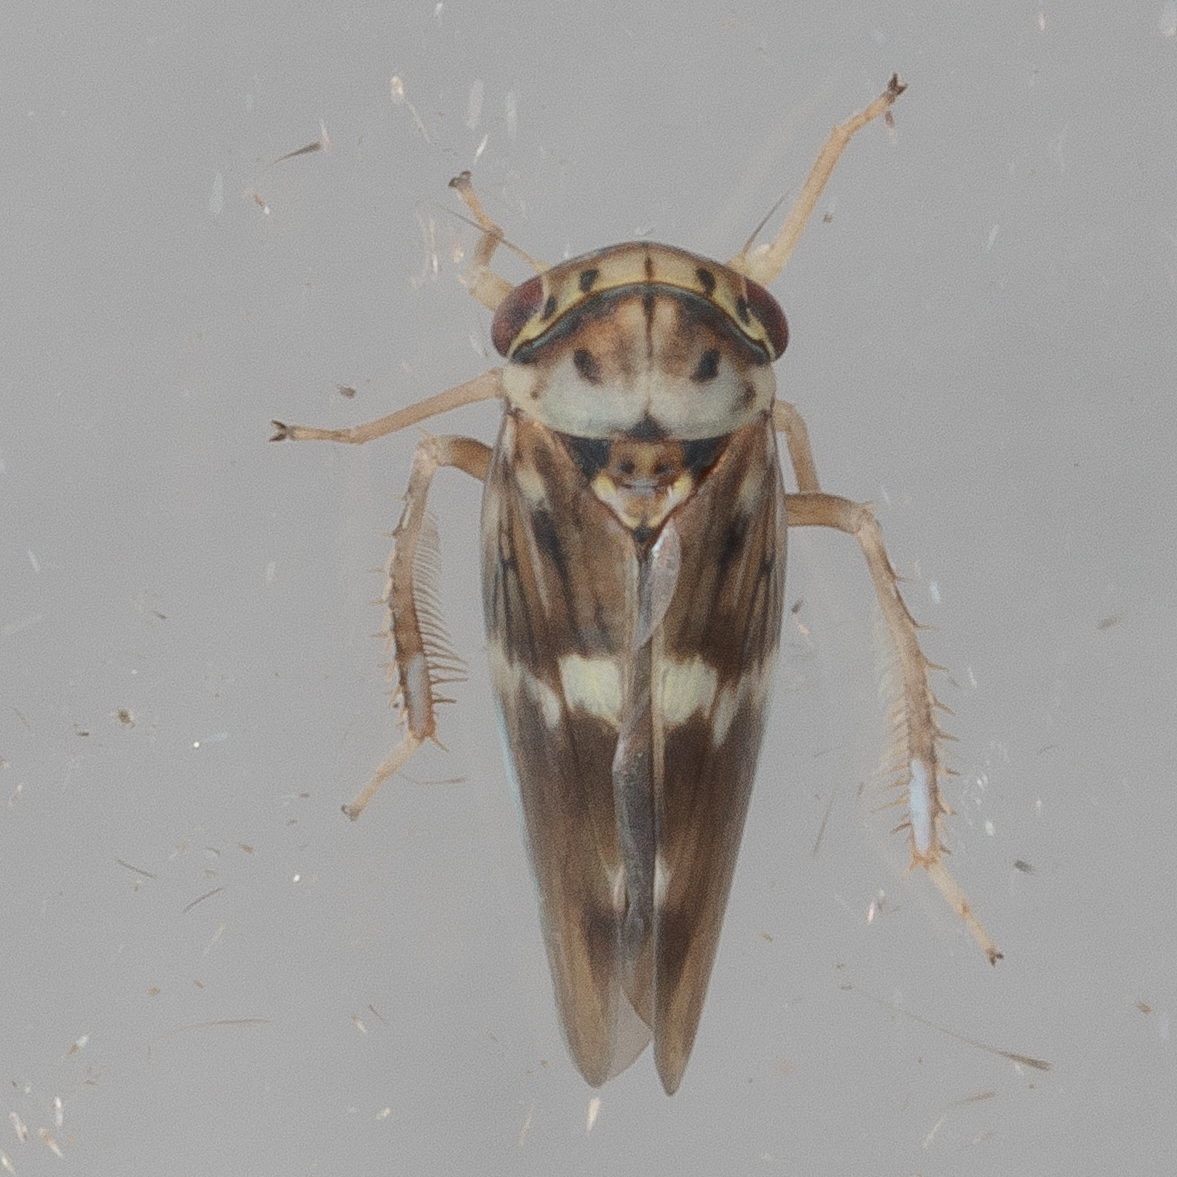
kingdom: Animalia
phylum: Arthropoda
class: Insecta
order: Hemiptera
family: Cicadellidae
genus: Agalliopsis
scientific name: Agalliopsis cervina
